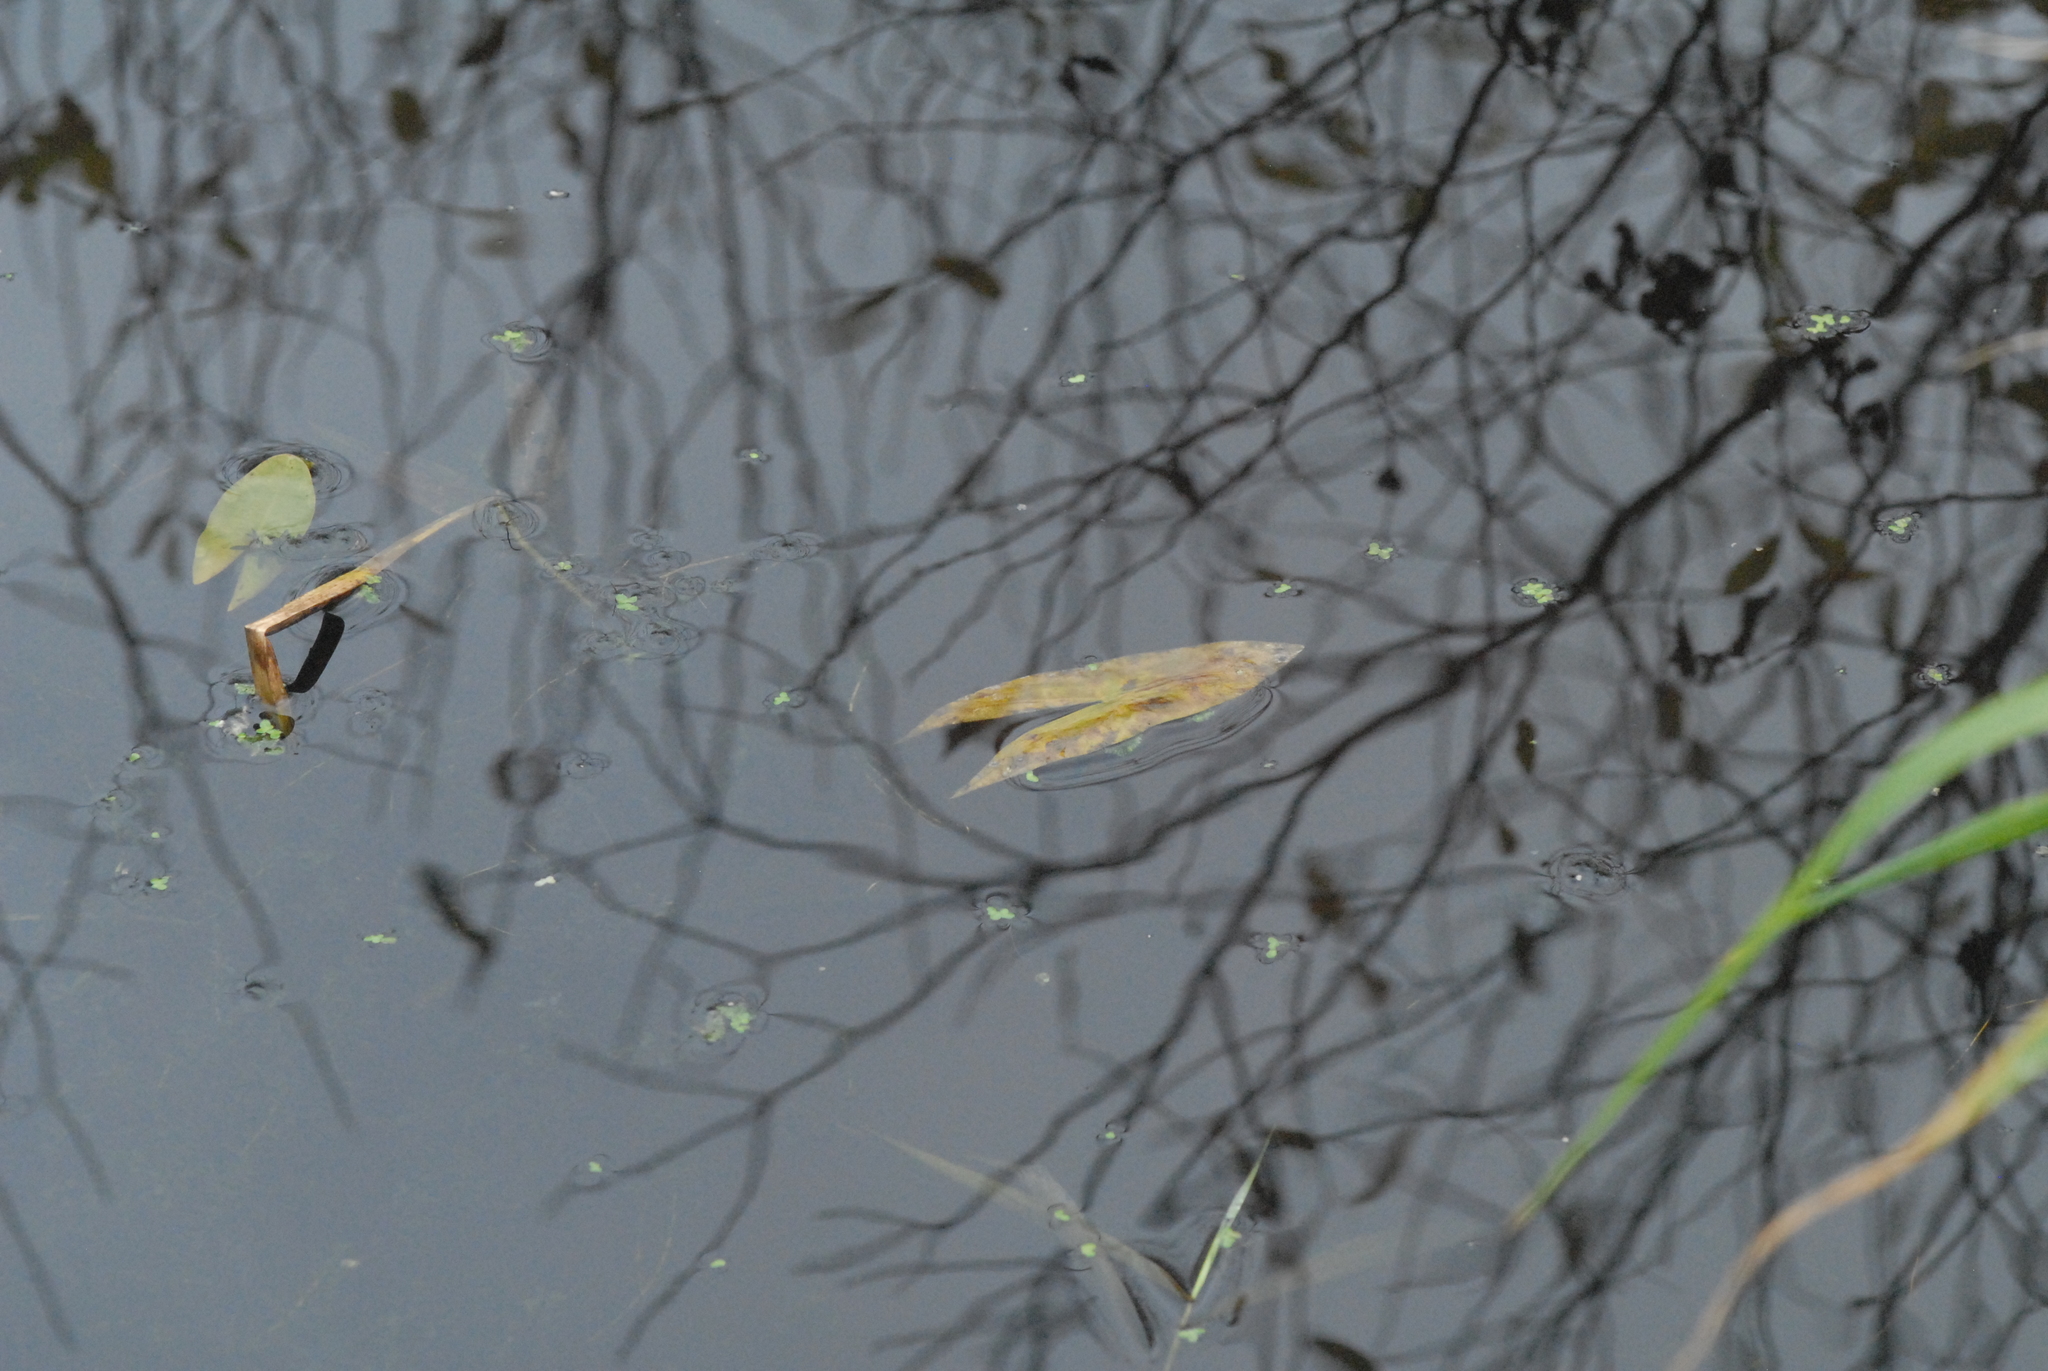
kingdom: Plantae
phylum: Tracheophyta
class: Liliopsida
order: Alismatales
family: Alismataceae
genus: Sagittaria
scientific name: Sagittaria sagittifolia
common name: Arrowhead
